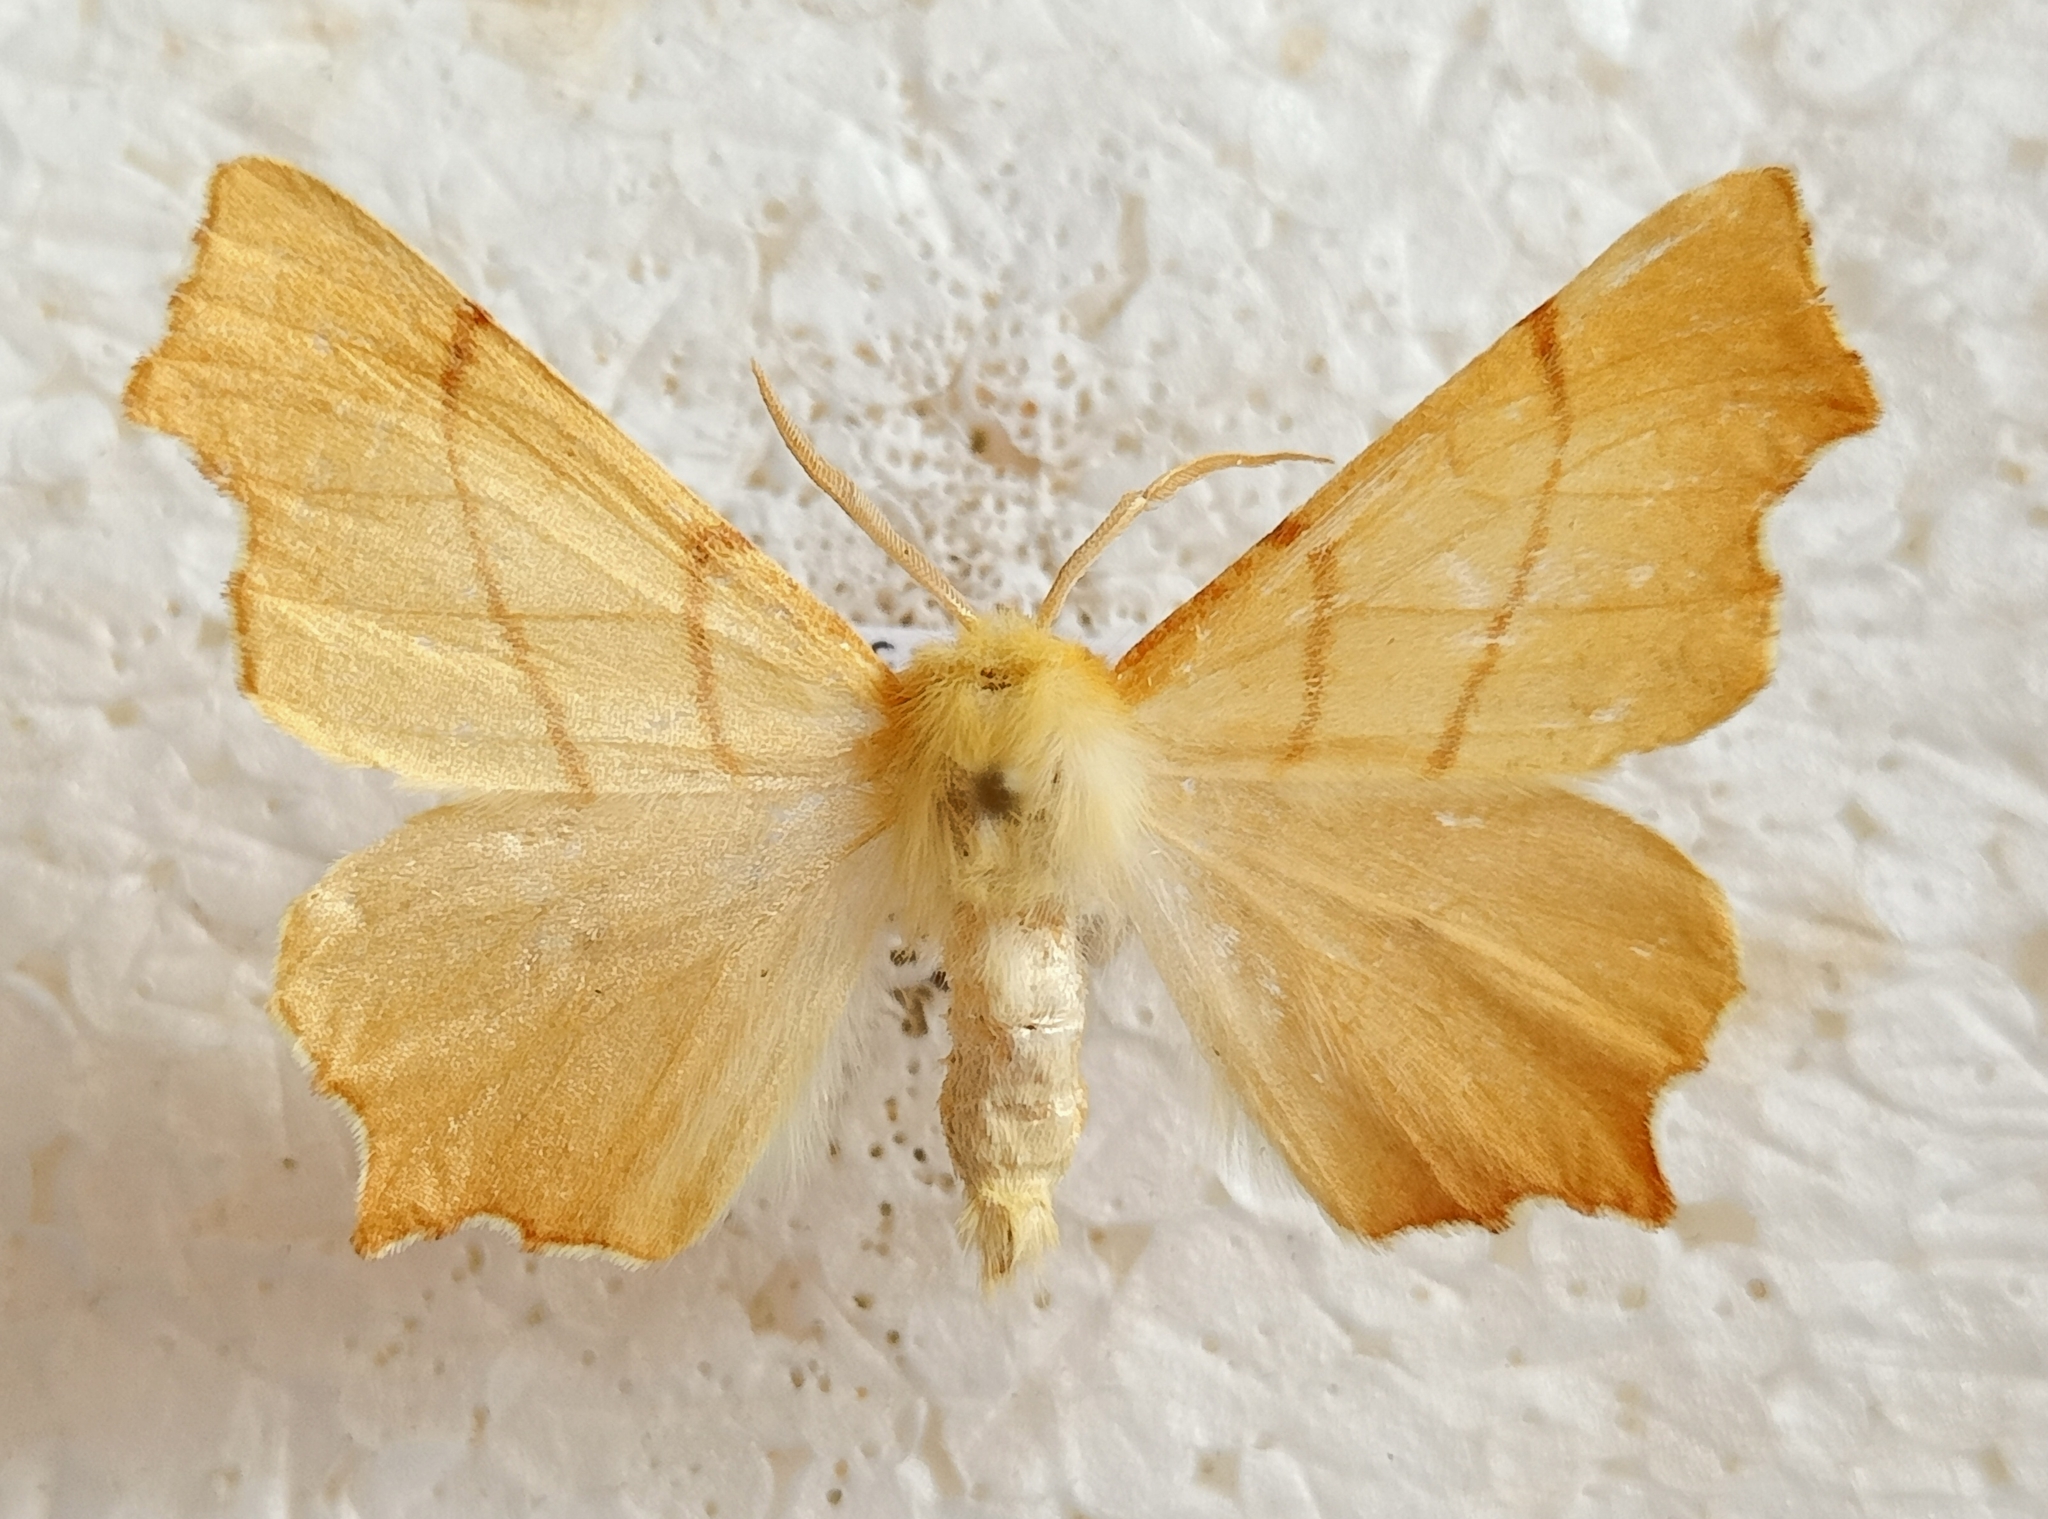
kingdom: Animalia
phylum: Arthropoda
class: Insecta
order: Lepidoptera
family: Geometridae
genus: Ennomos
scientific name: Ennomos erosaria
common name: September thorn
